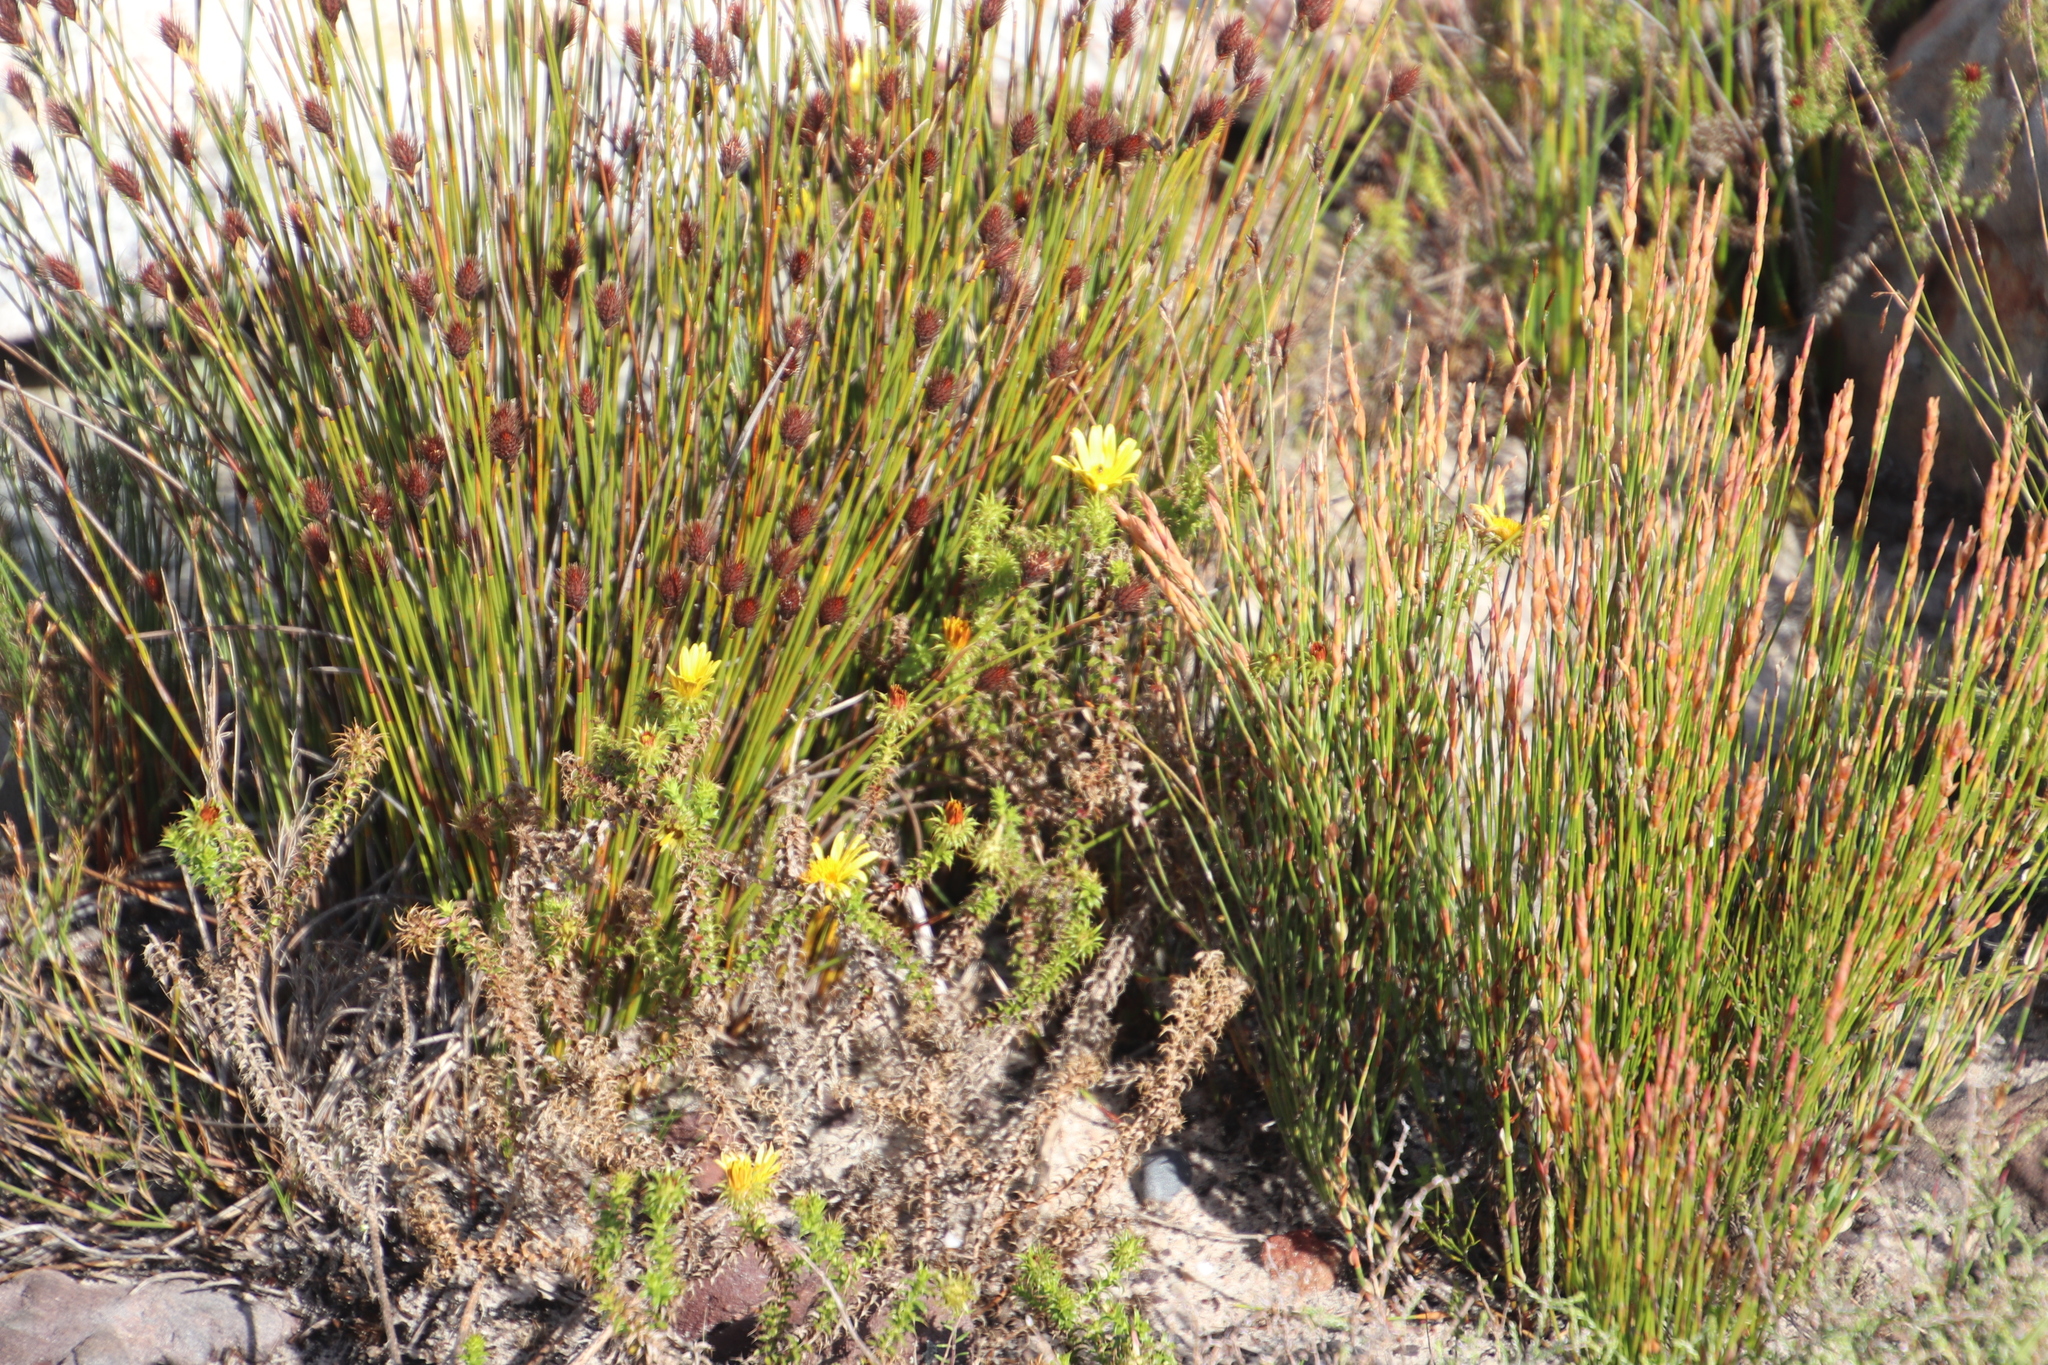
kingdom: Plantae
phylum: Tracheophyta
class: Magnoliopsida
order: Asterales
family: Asteraceae
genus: Cullumia
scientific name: Cullumia setosa
